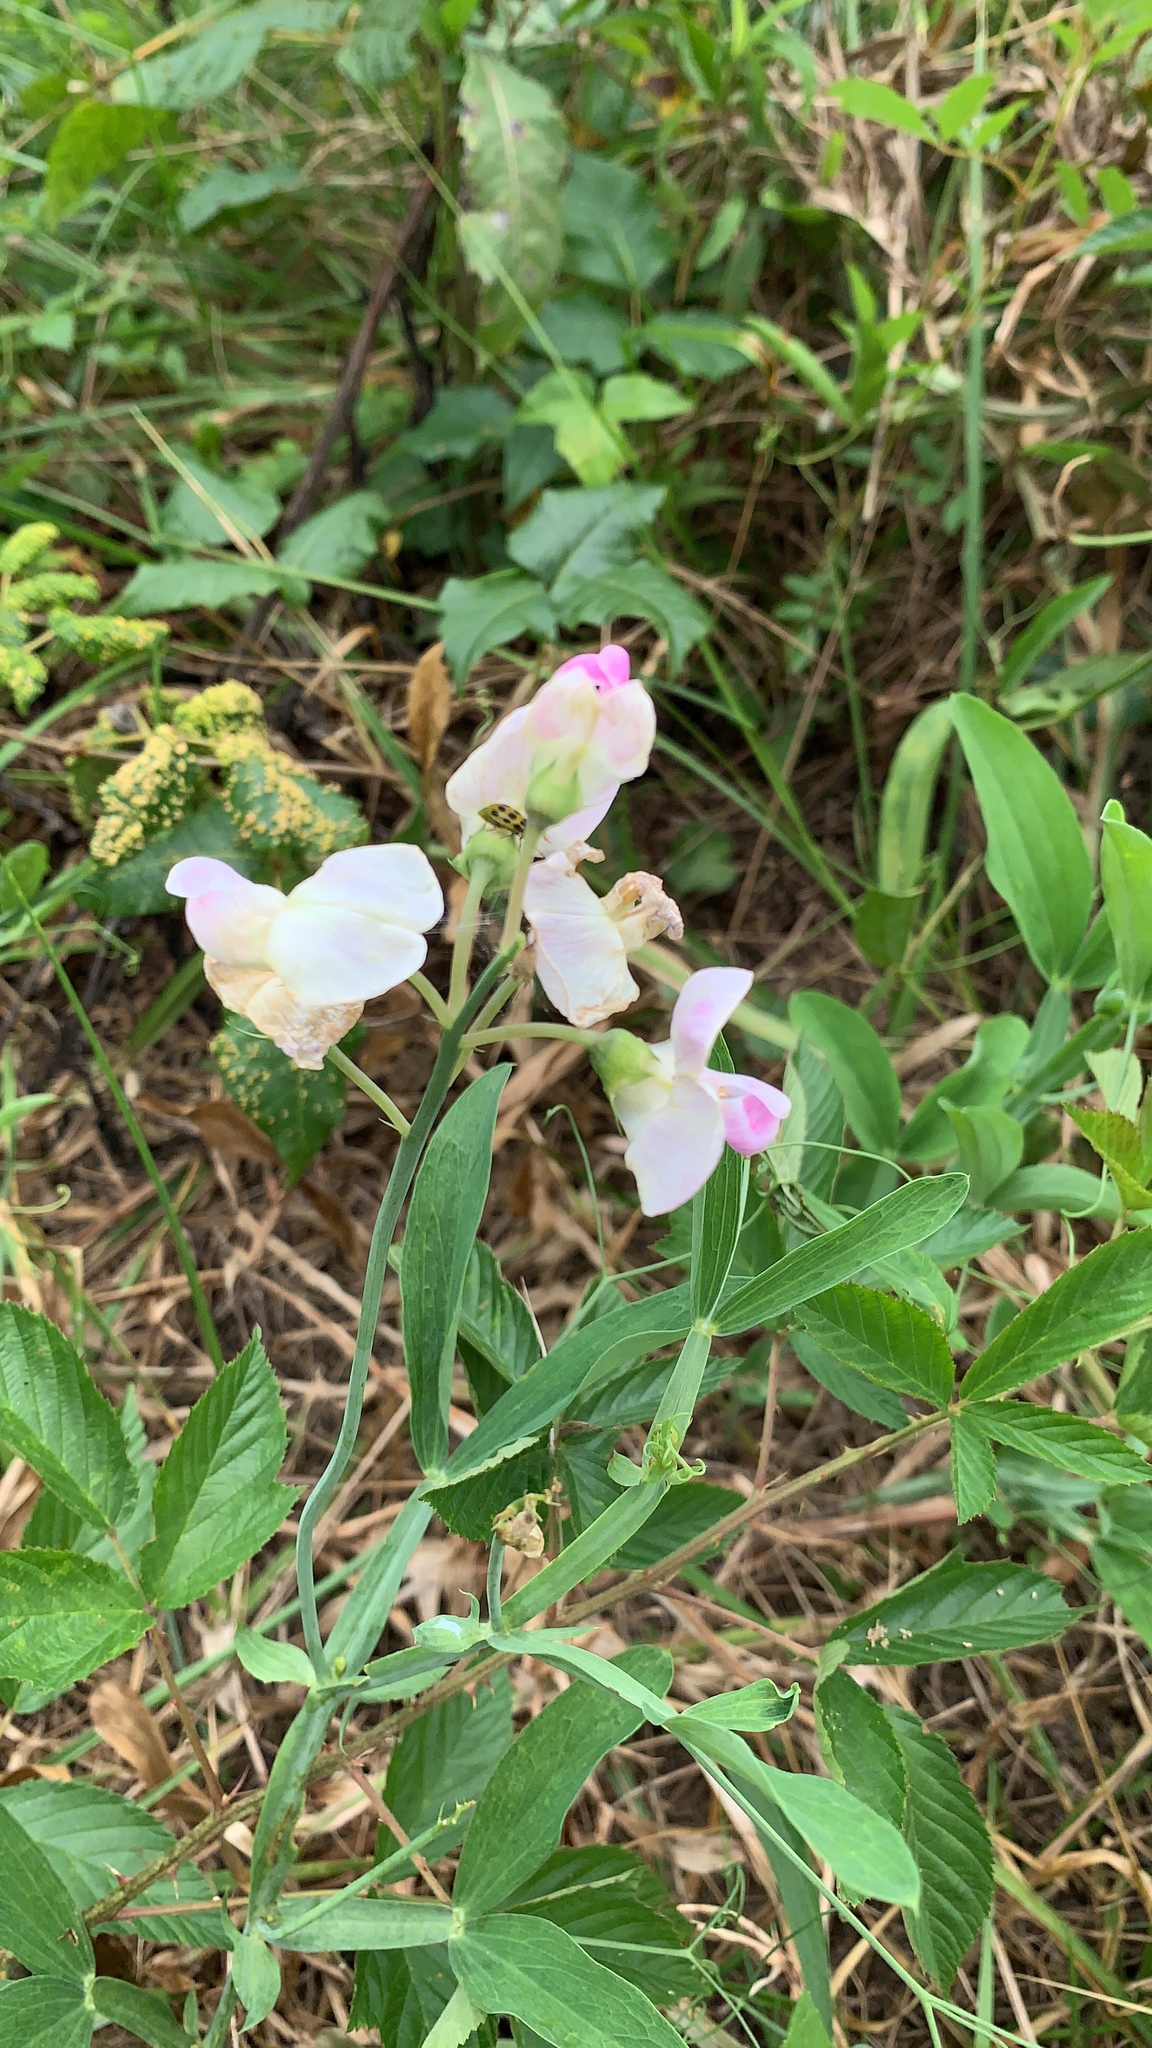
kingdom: Plantae
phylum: Tracheophyta
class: Magnoliopsida
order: Fabales
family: Fabaceae
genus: Lathyrus
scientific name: Lathyrus latifolius
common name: Perennial pea
